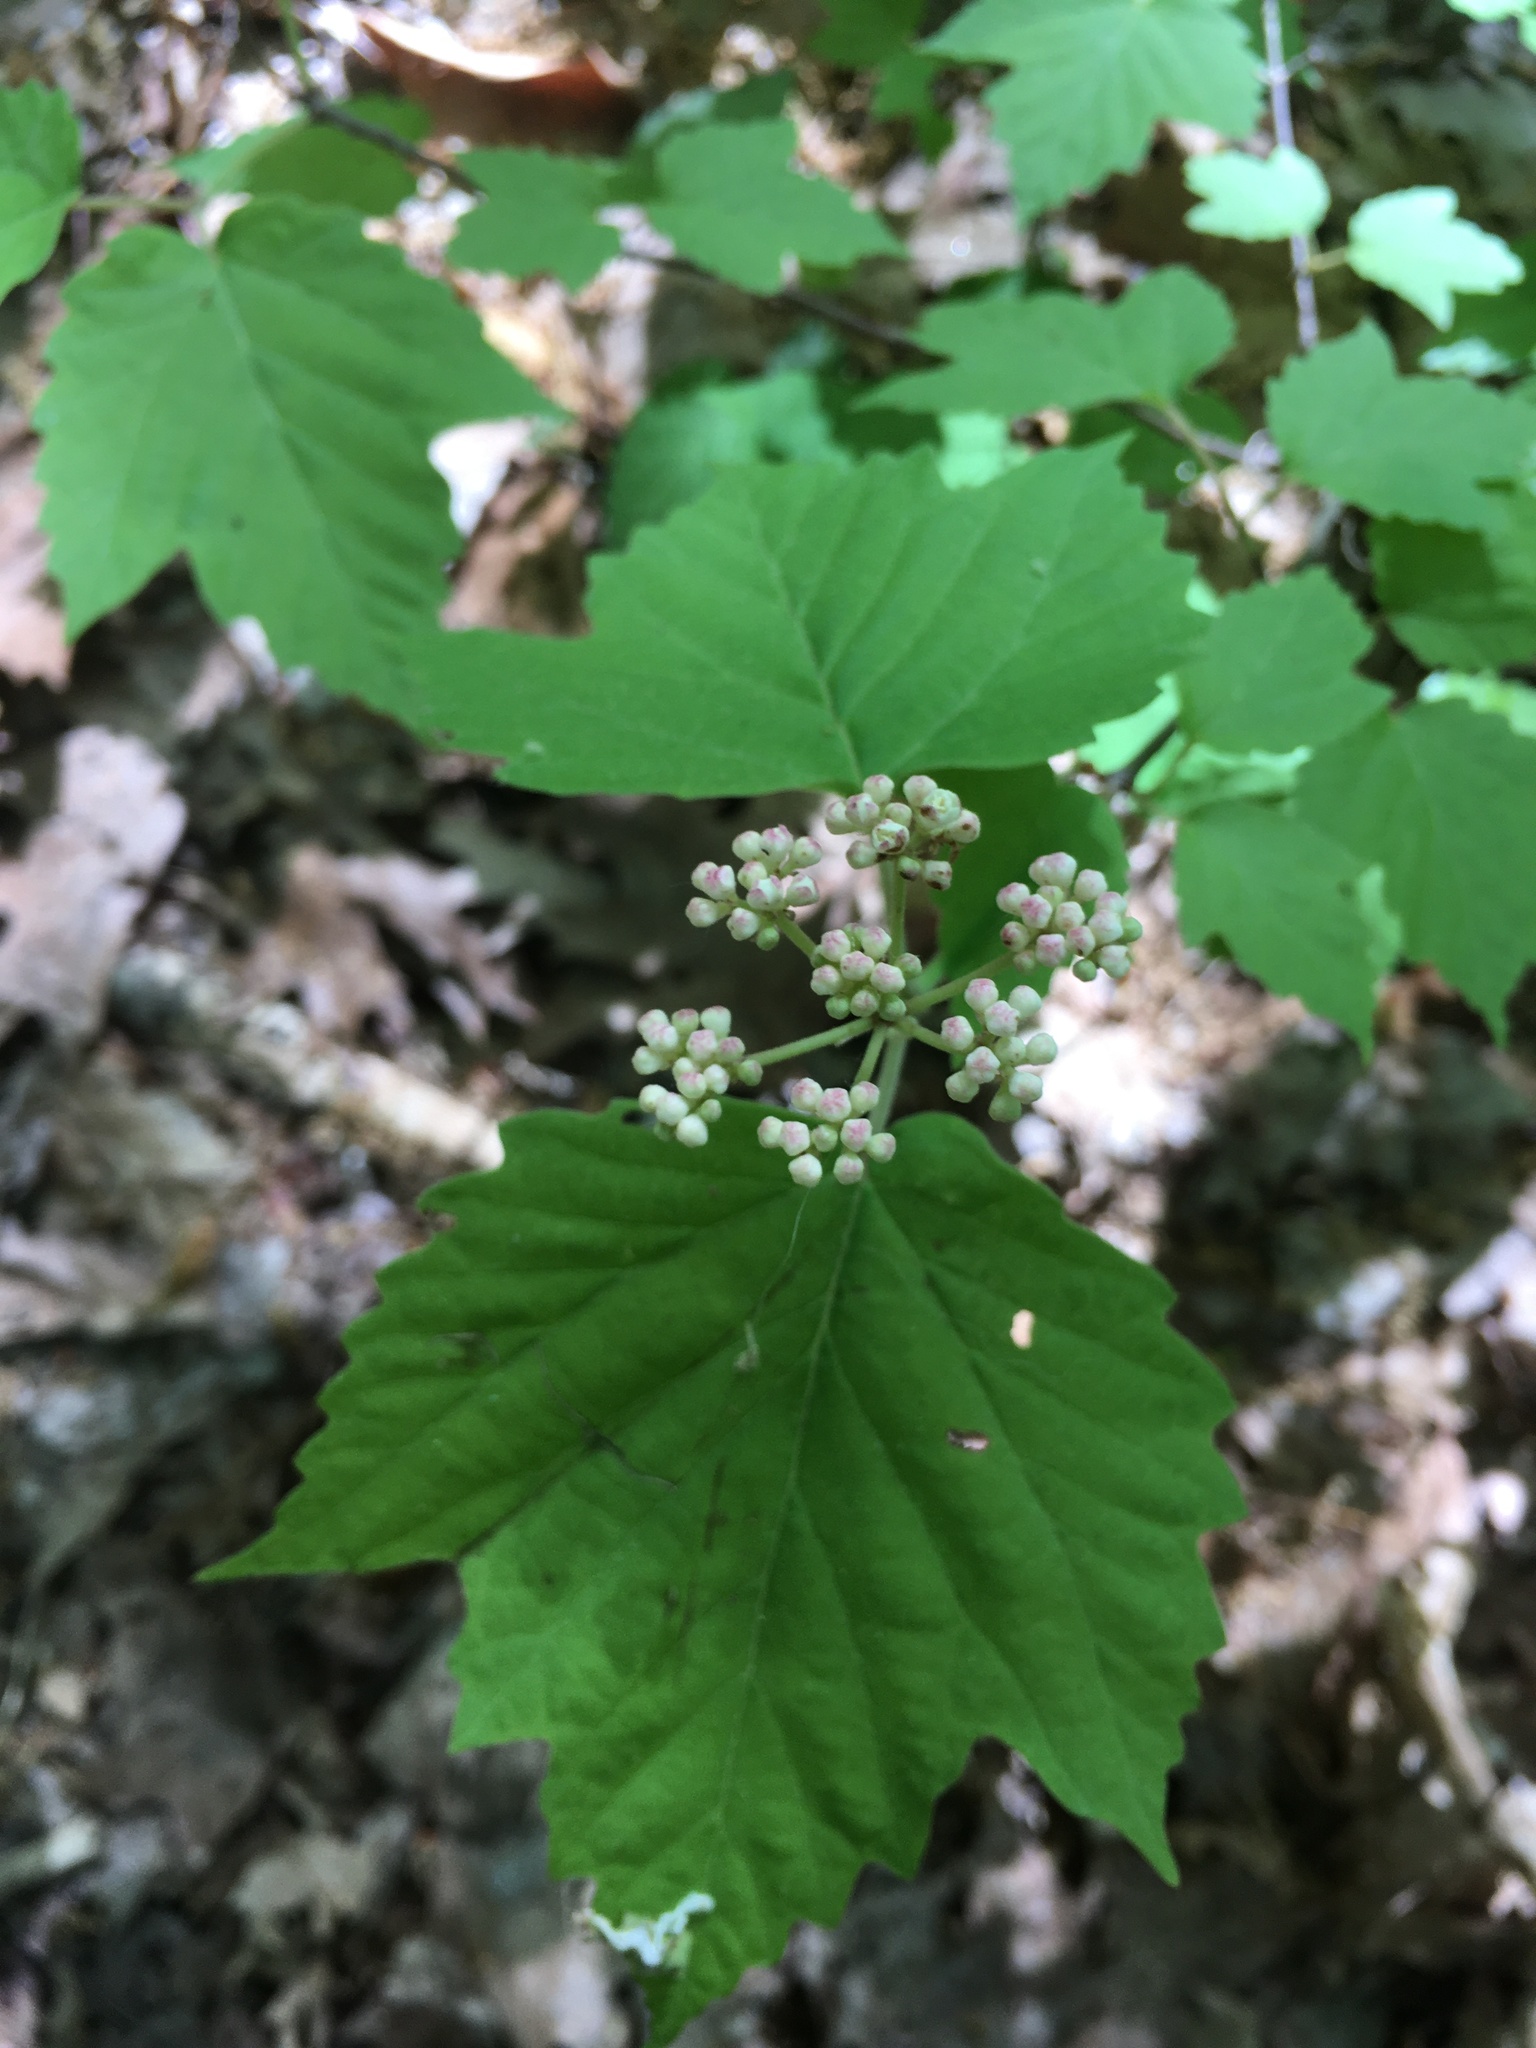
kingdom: Plantae
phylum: Tracheophyta
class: Magnoliopsida
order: Dipsacales
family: Viburnaceae
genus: Viburnum
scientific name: Viburnum acerifolium
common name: Dockmackie
